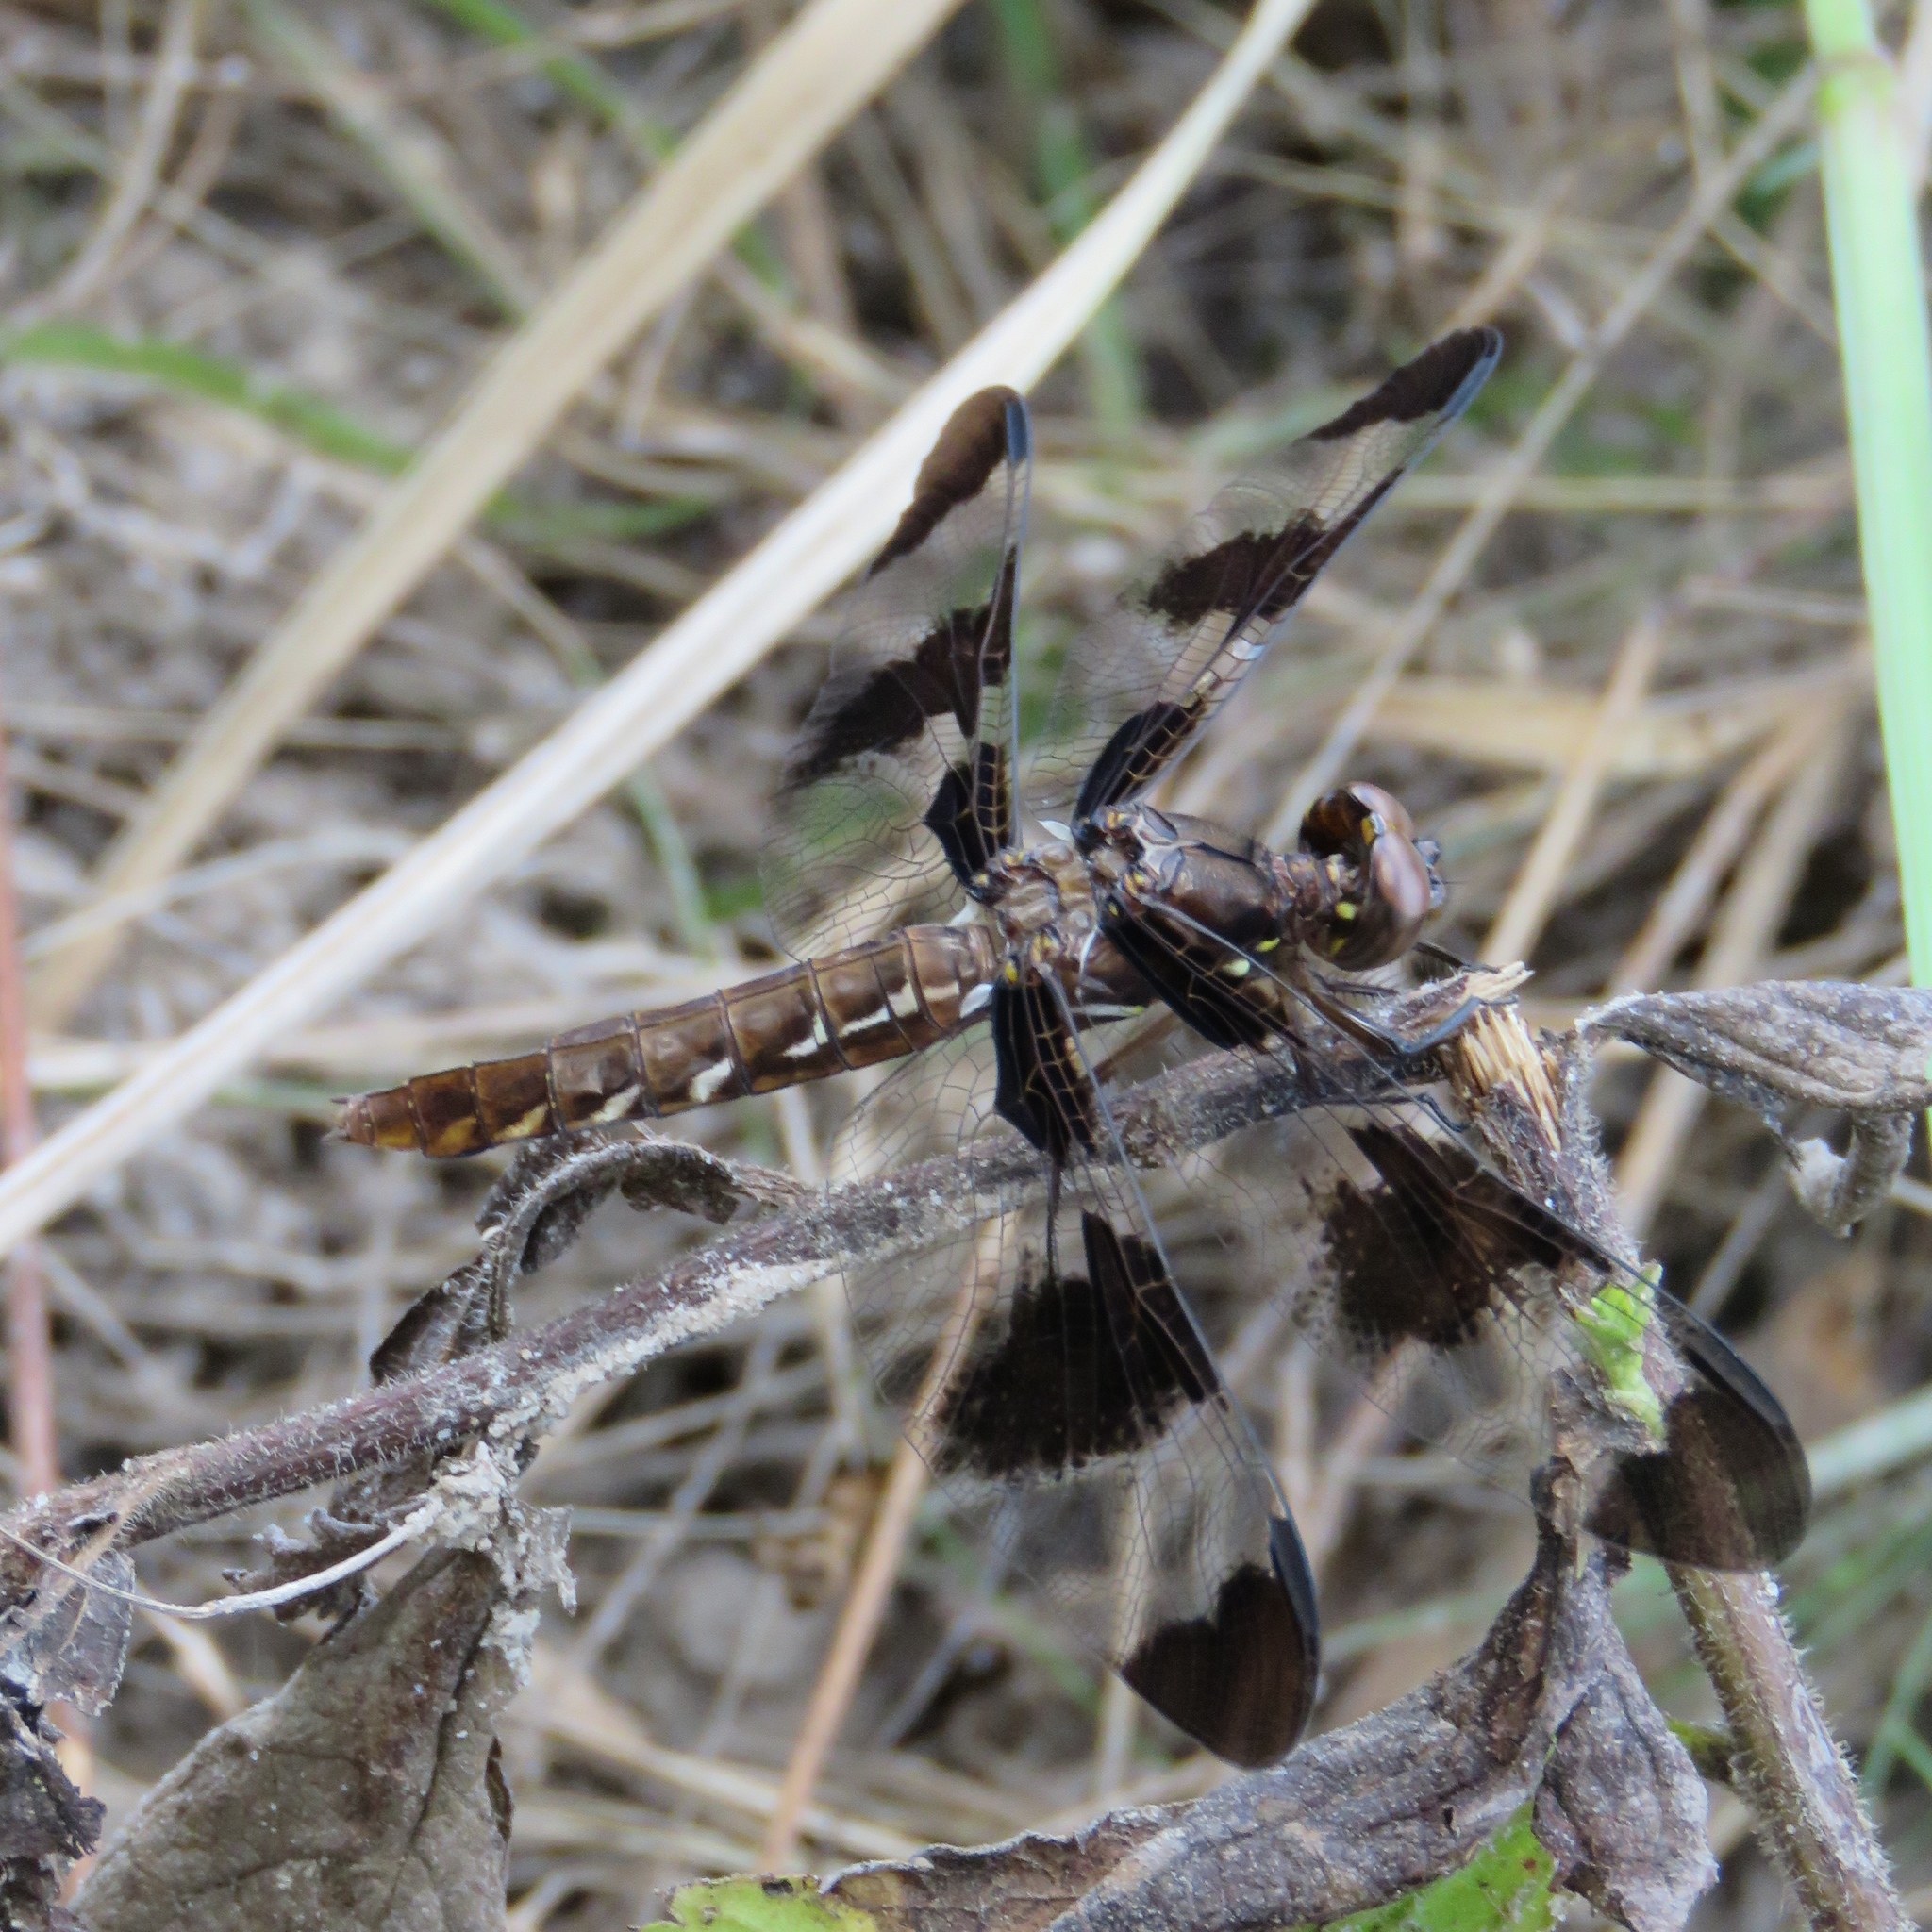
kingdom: Animalia
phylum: Arthropoda
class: Insecta
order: Odonata
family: Libellulidae
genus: Plathemis
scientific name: Plathemis lydia
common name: Common whitetail
